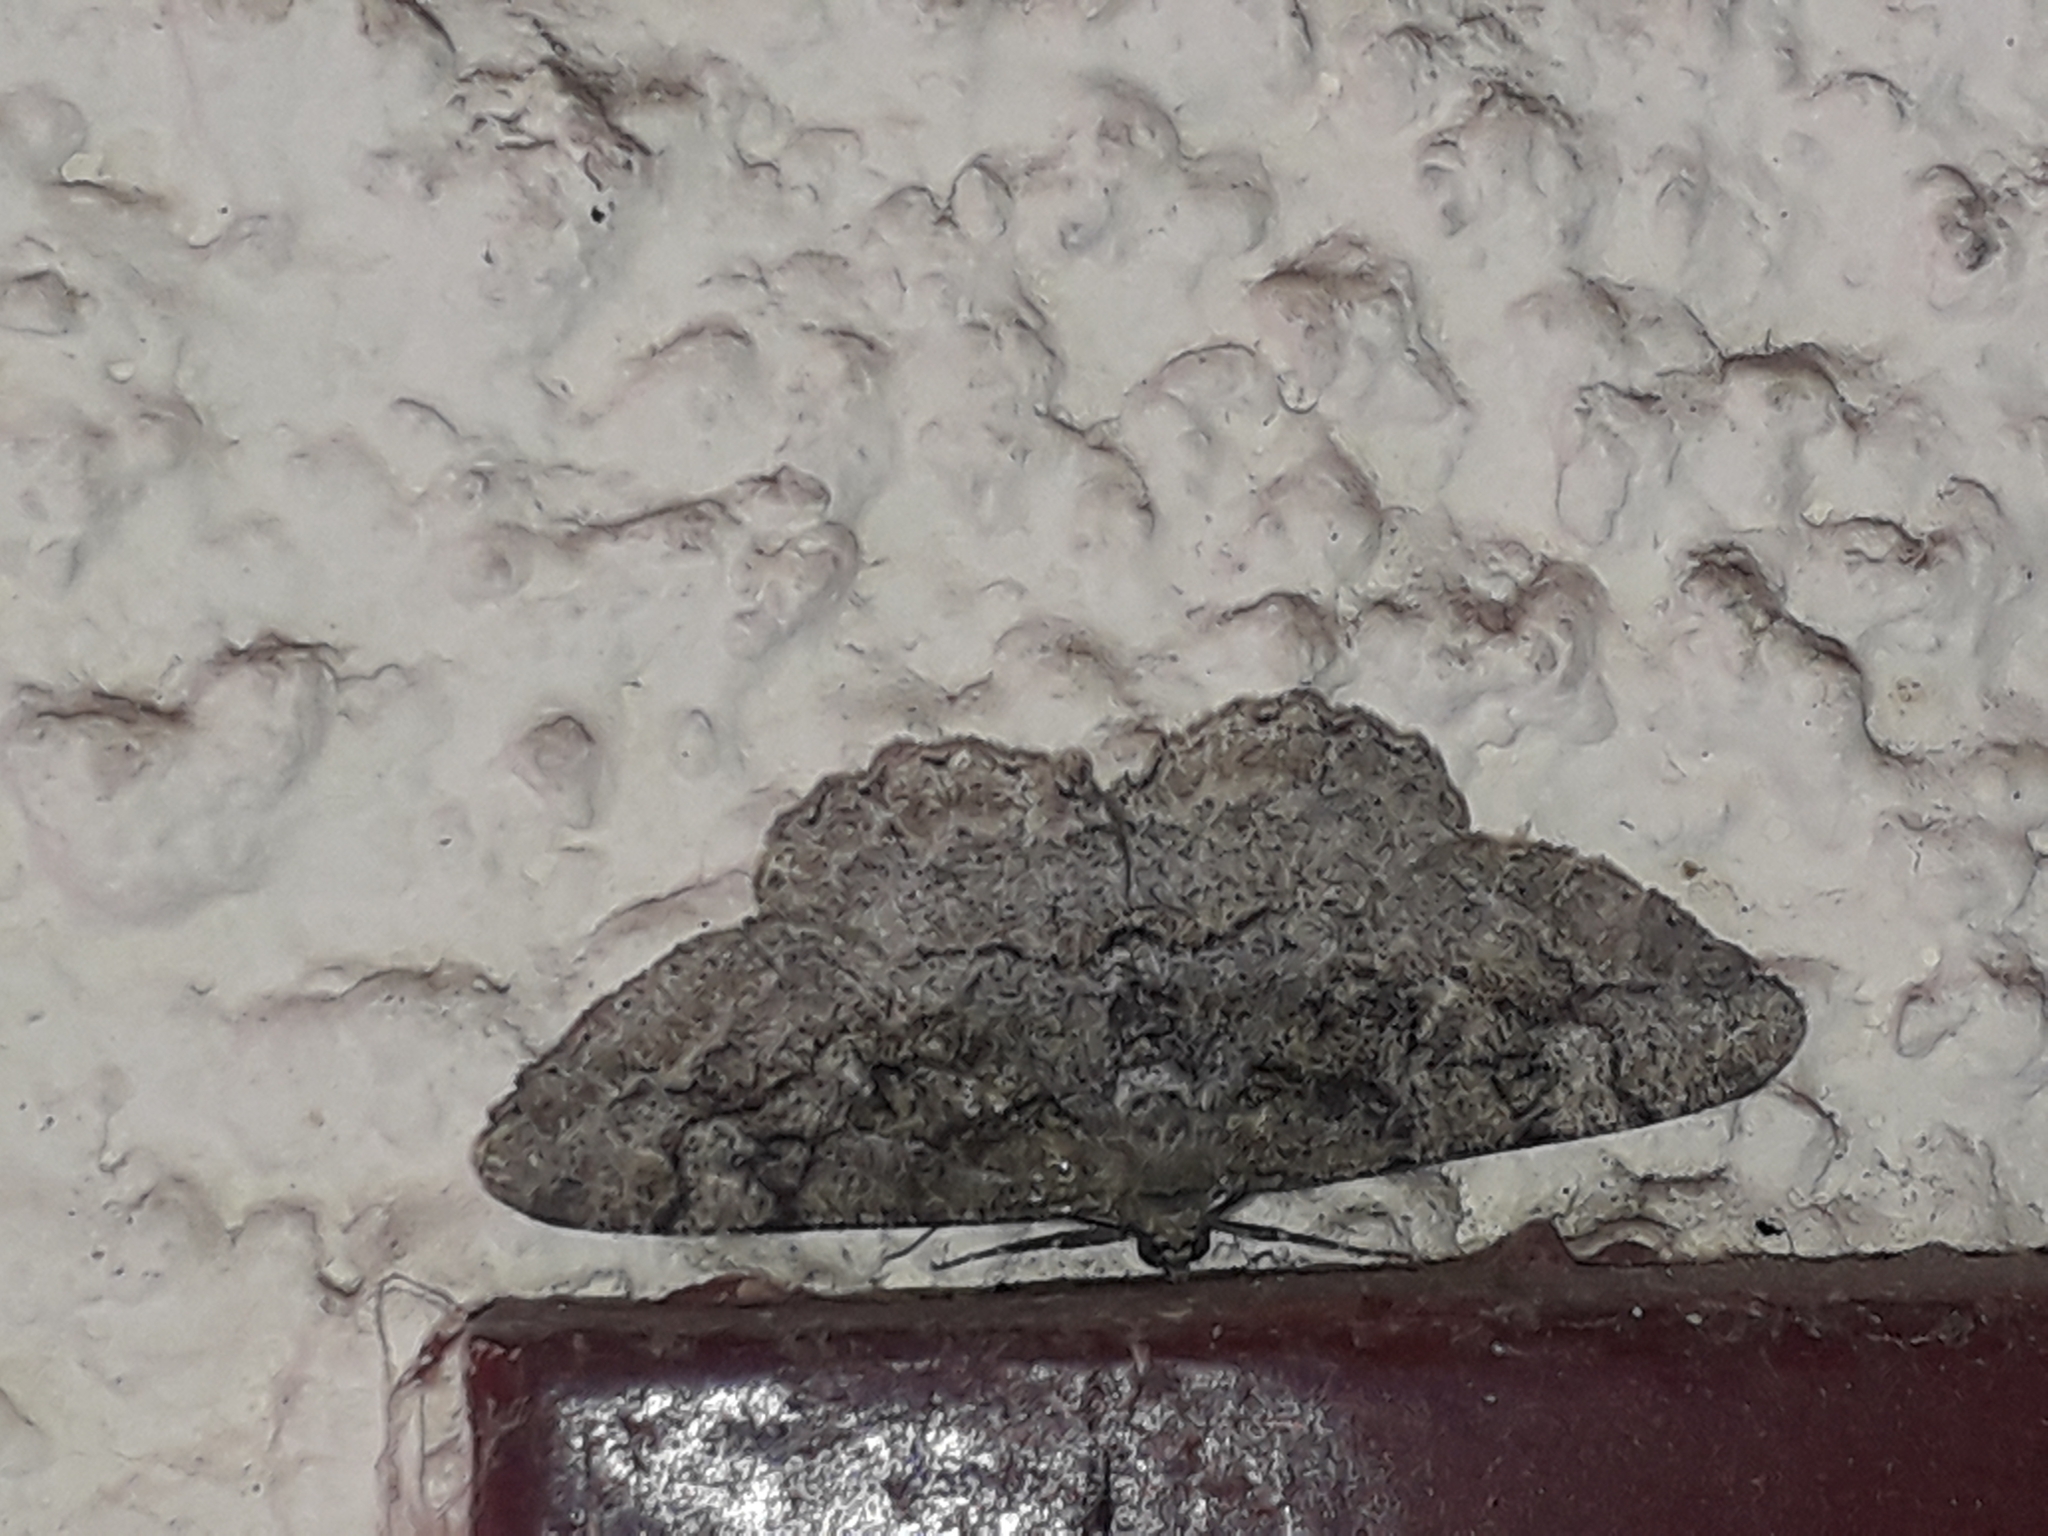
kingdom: Animalia
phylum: Arthropoda
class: Insecta
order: Lepidoptera
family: Geometridae
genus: Alcis
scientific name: Alcis repandata
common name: Mottled beauty
